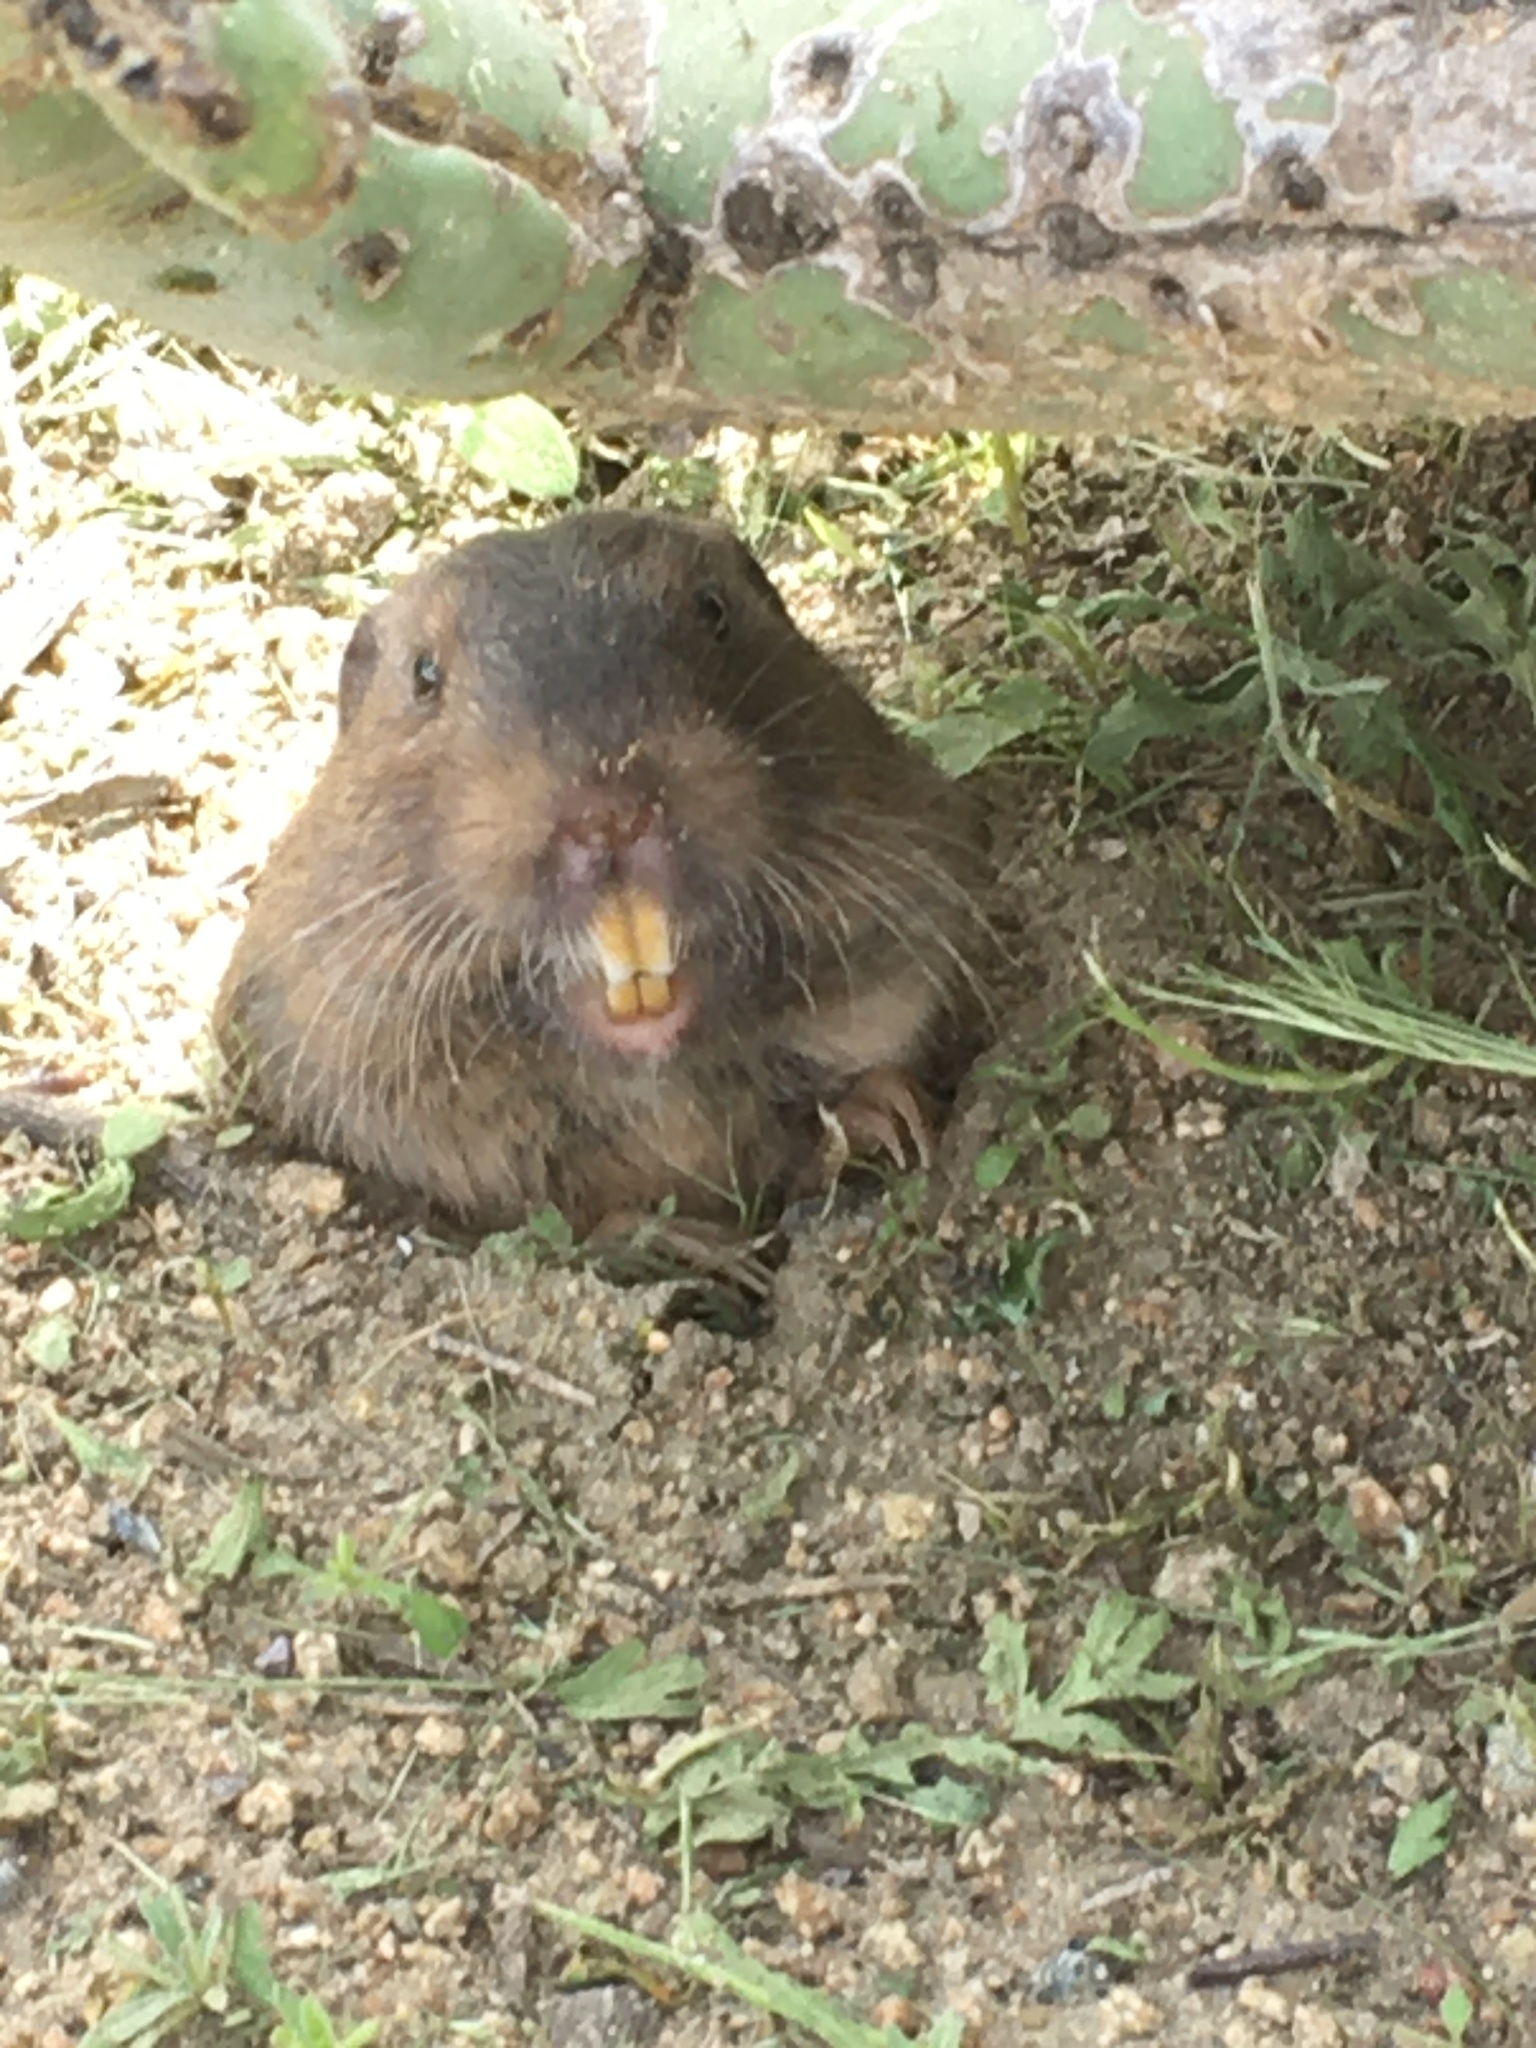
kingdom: Animalia
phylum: Chordata
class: Mammalia
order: Rodentia
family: Geomyidae
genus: Thomomys
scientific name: Thomomys bottae
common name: Botta's pocket gopher
